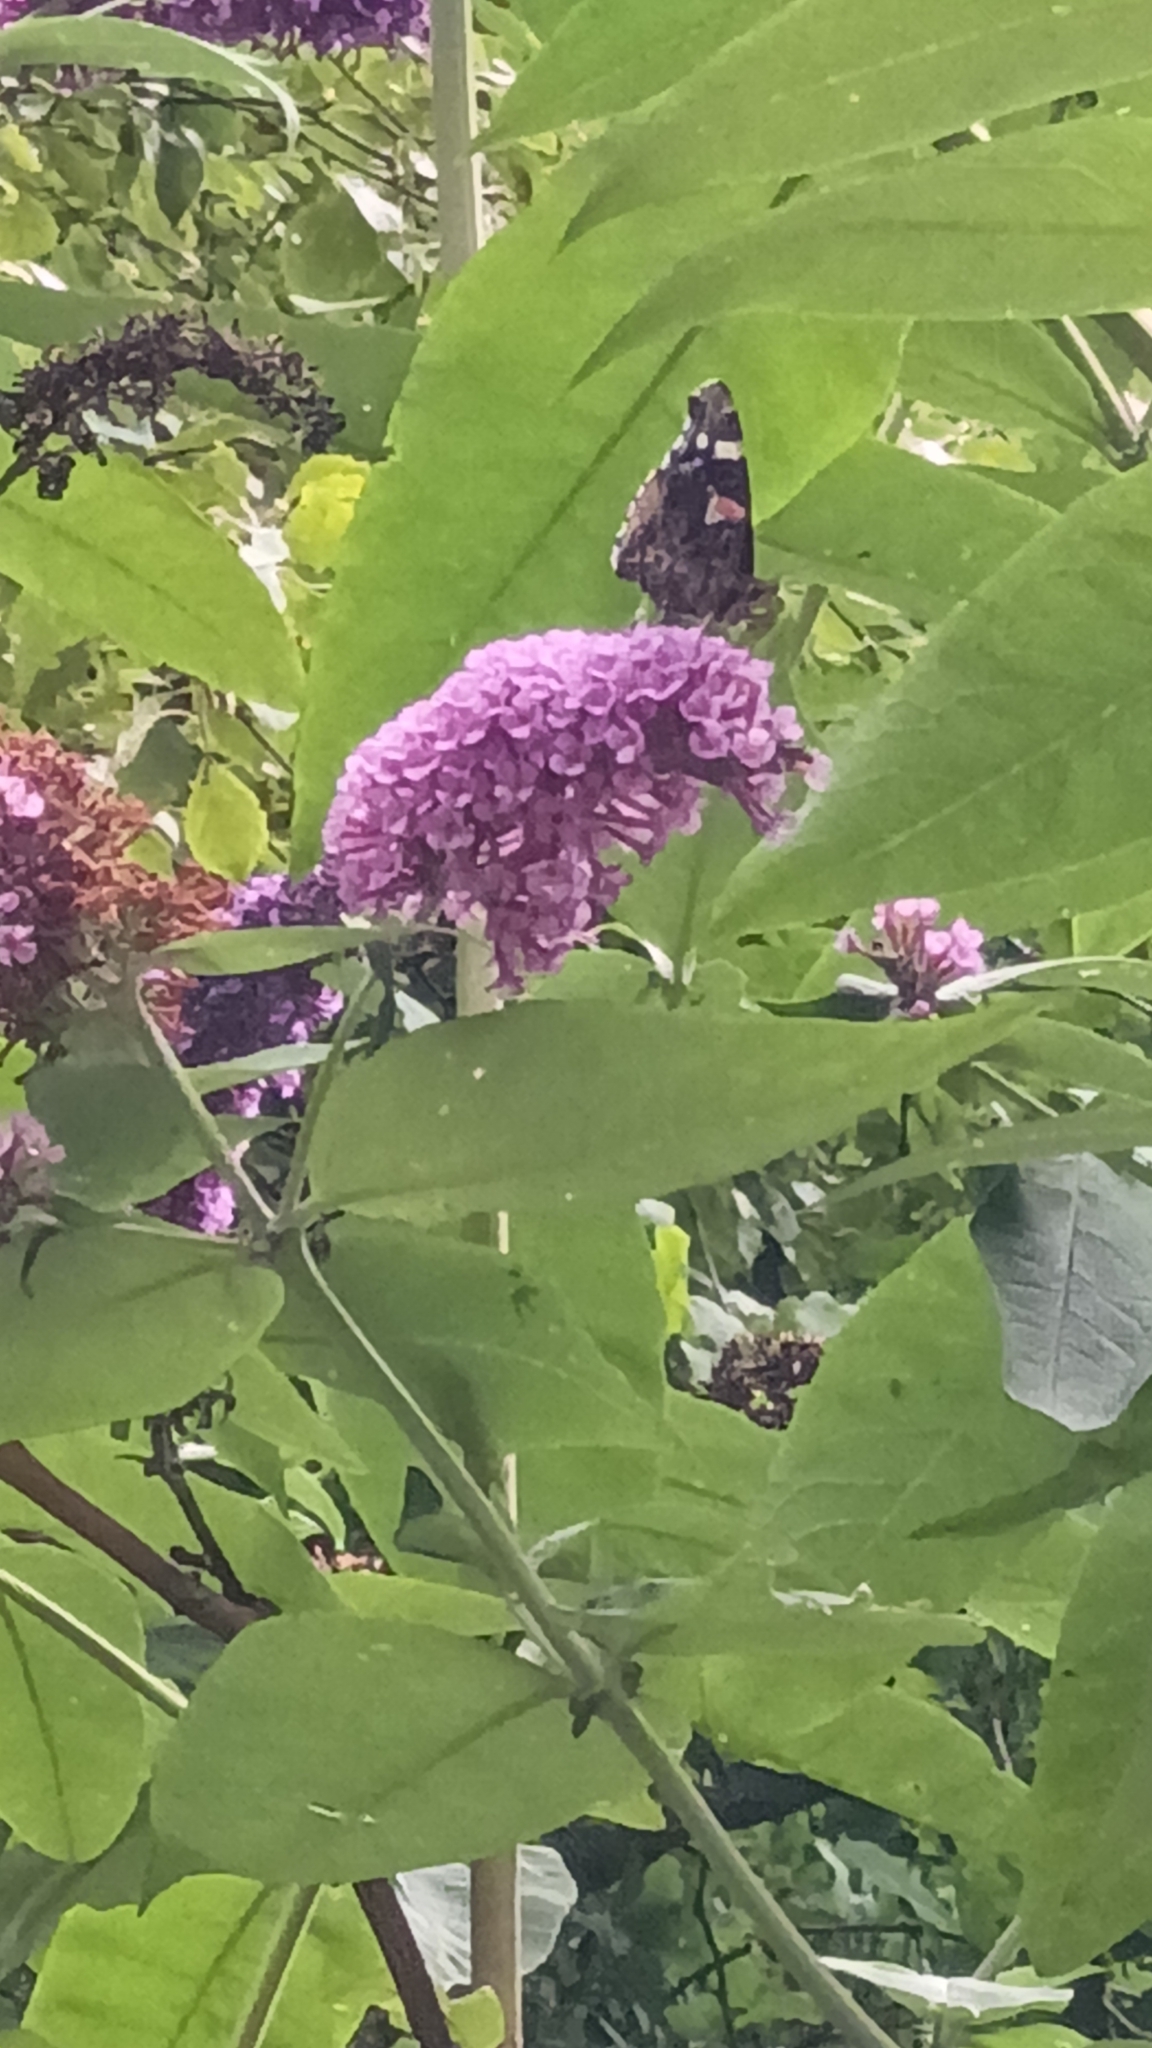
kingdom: Animalia
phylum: Arthropoda
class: Insecta
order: Lepidoptera
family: Nymphalidae
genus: Vanessa
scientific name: Vanessa atalanta
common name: Red admiral
